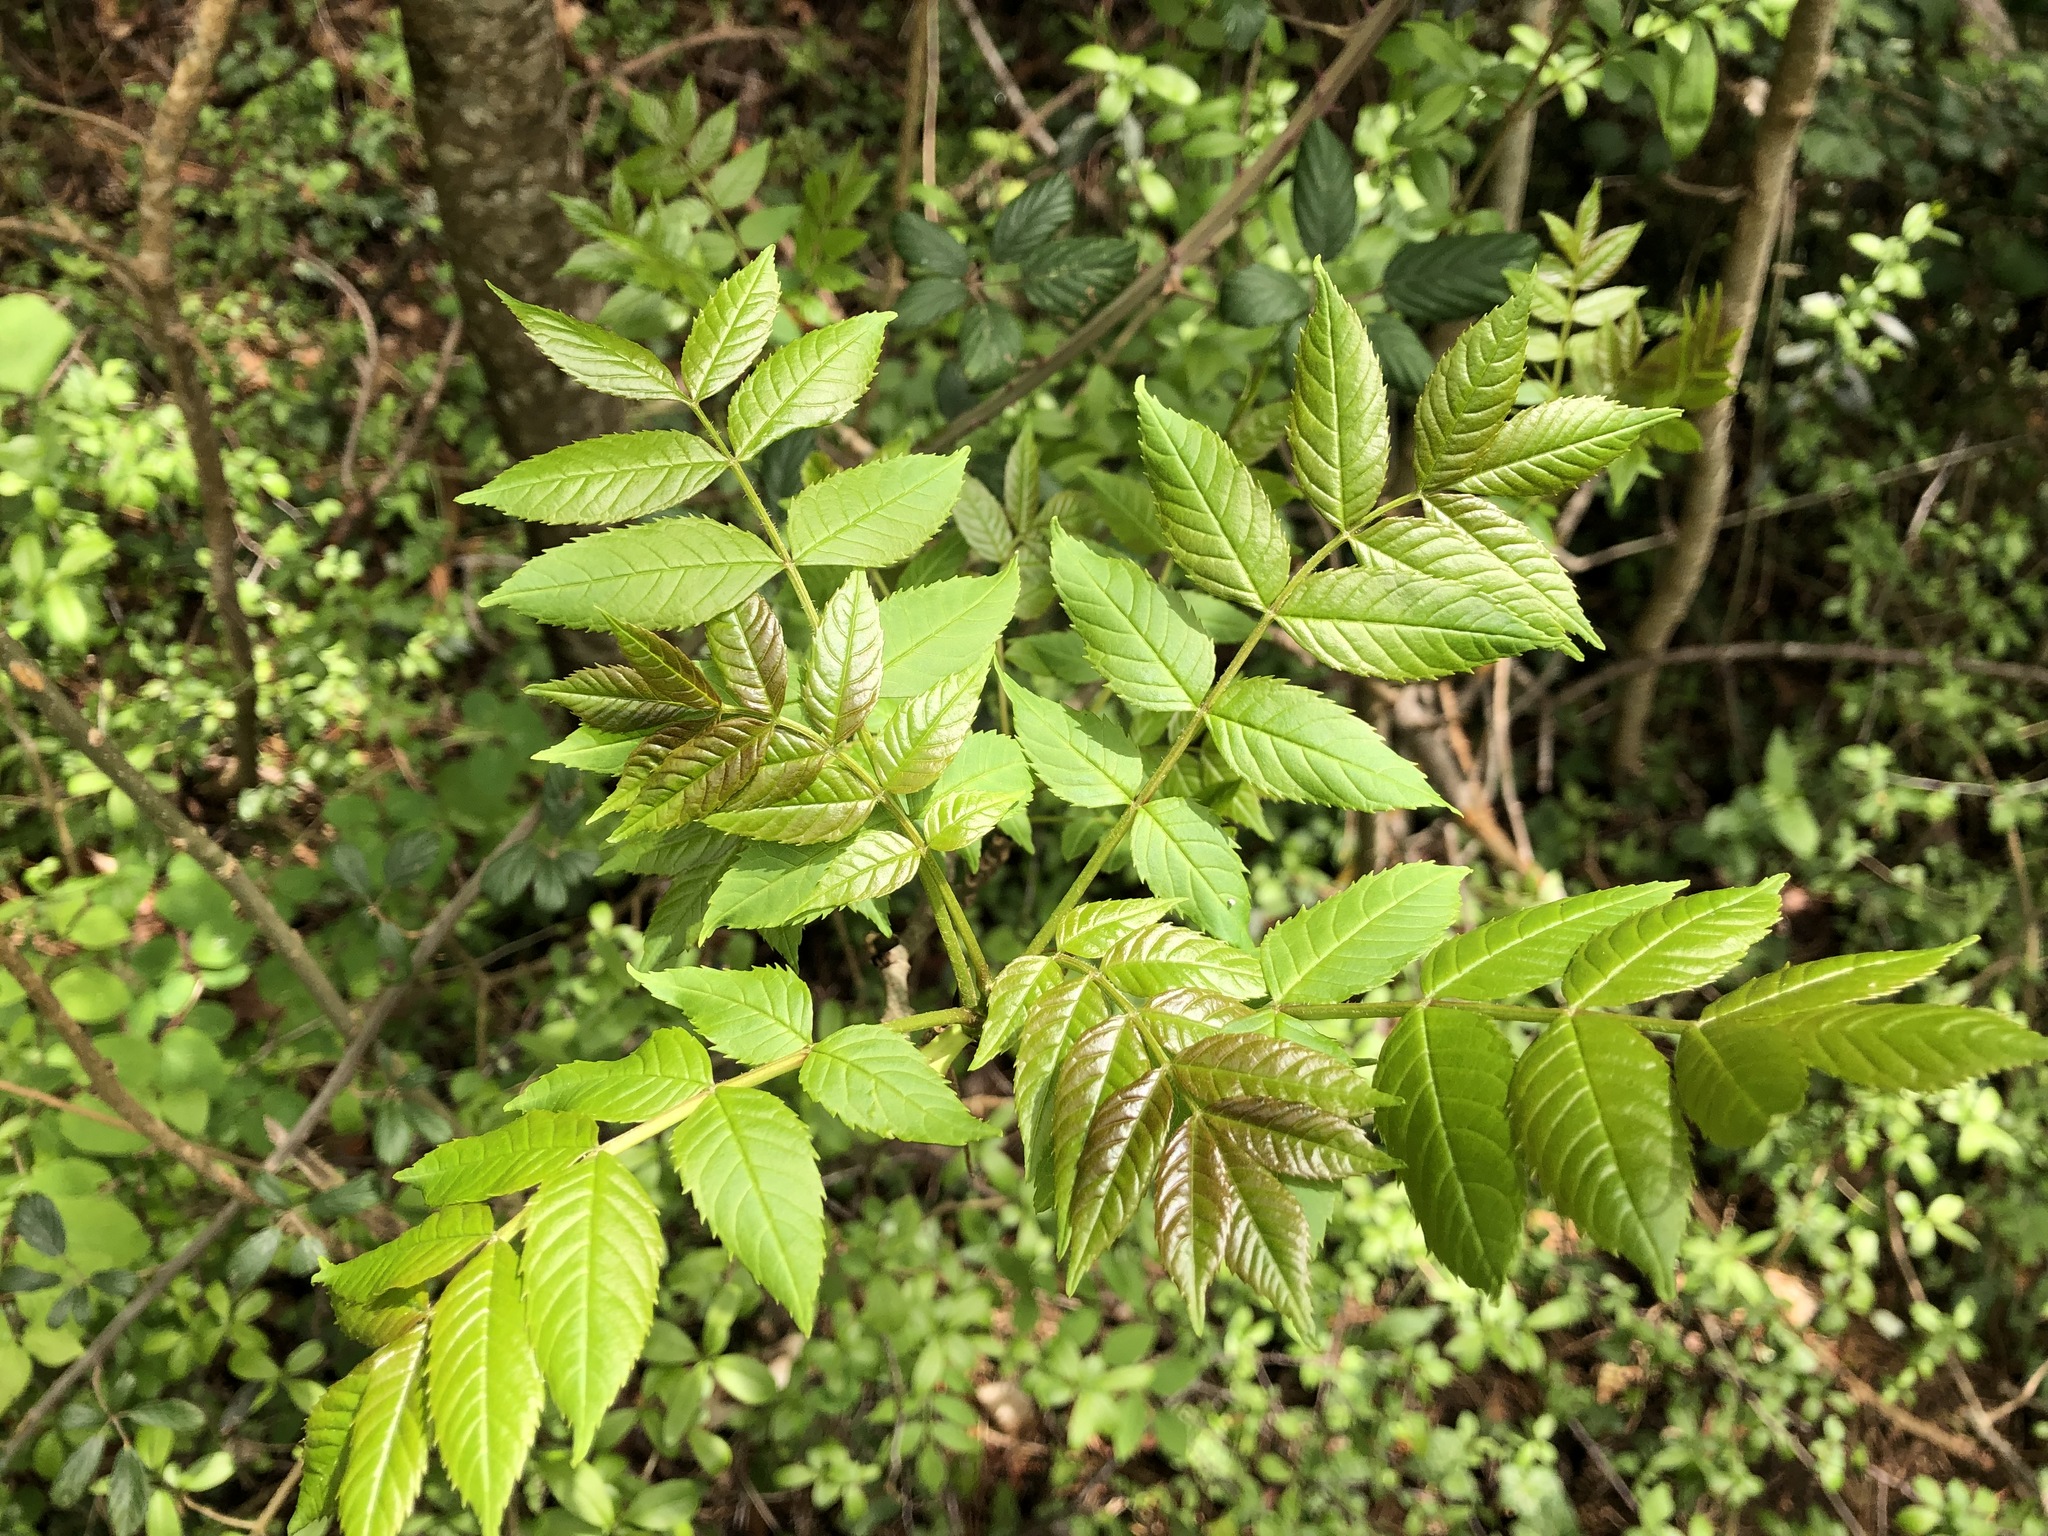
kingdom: Plantae
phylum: Tracheophyta
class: Magnoliopsida
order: Lamiales
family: Oleaceae
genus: Fraxinus
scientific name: Fraxinus excelsior
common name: European ash
